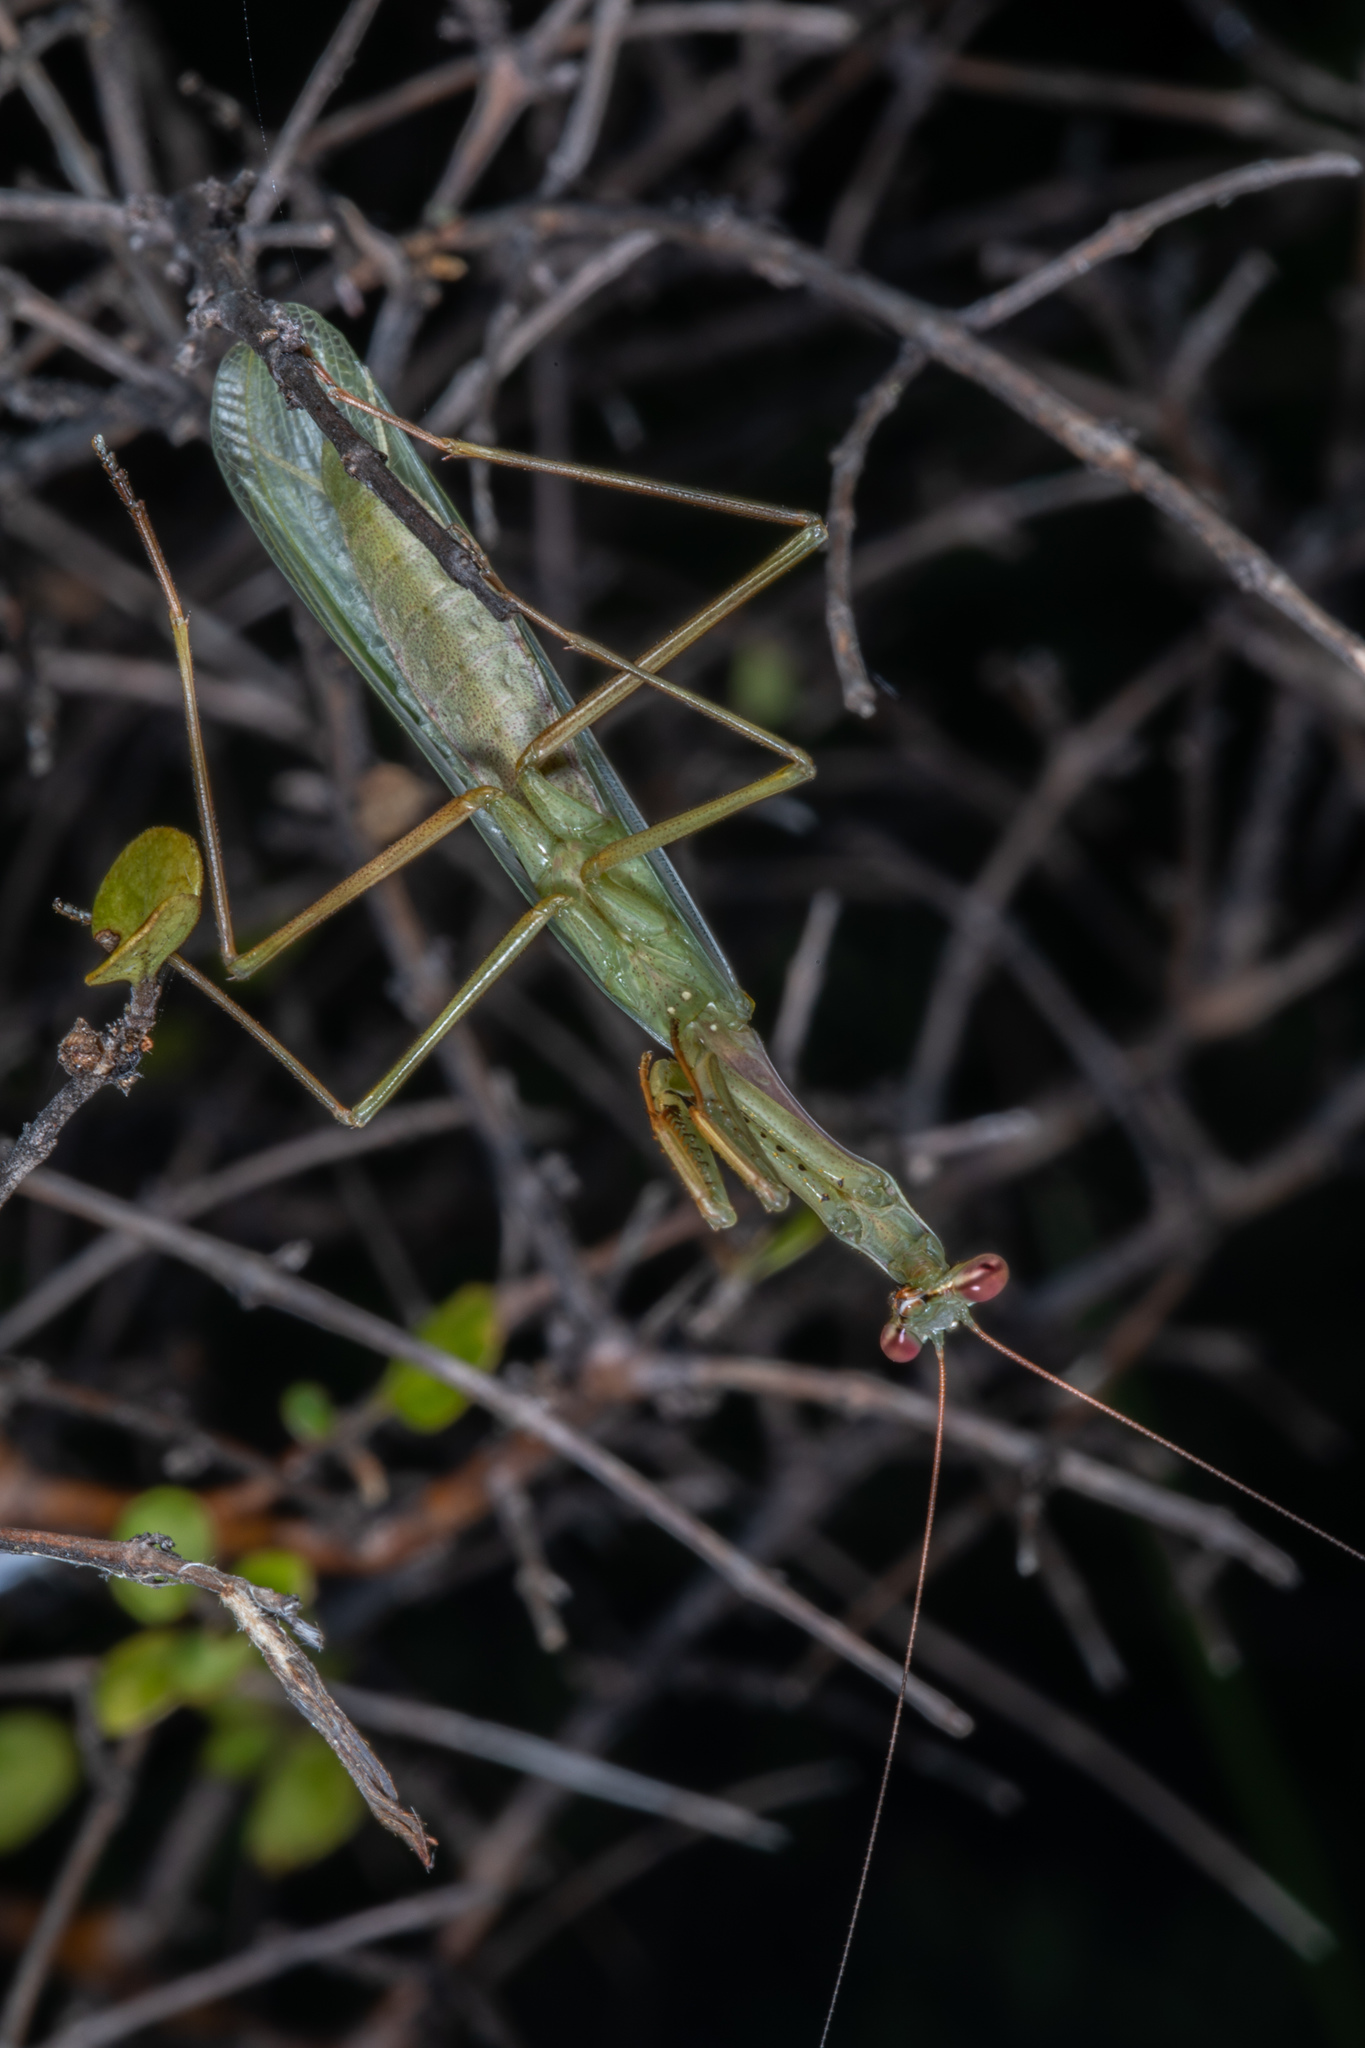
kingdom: Animalia
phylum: Arthropoda
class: Insecta
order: Mantodea
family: Miomantidae
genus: Miomantis
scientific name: Miomantis caffra
